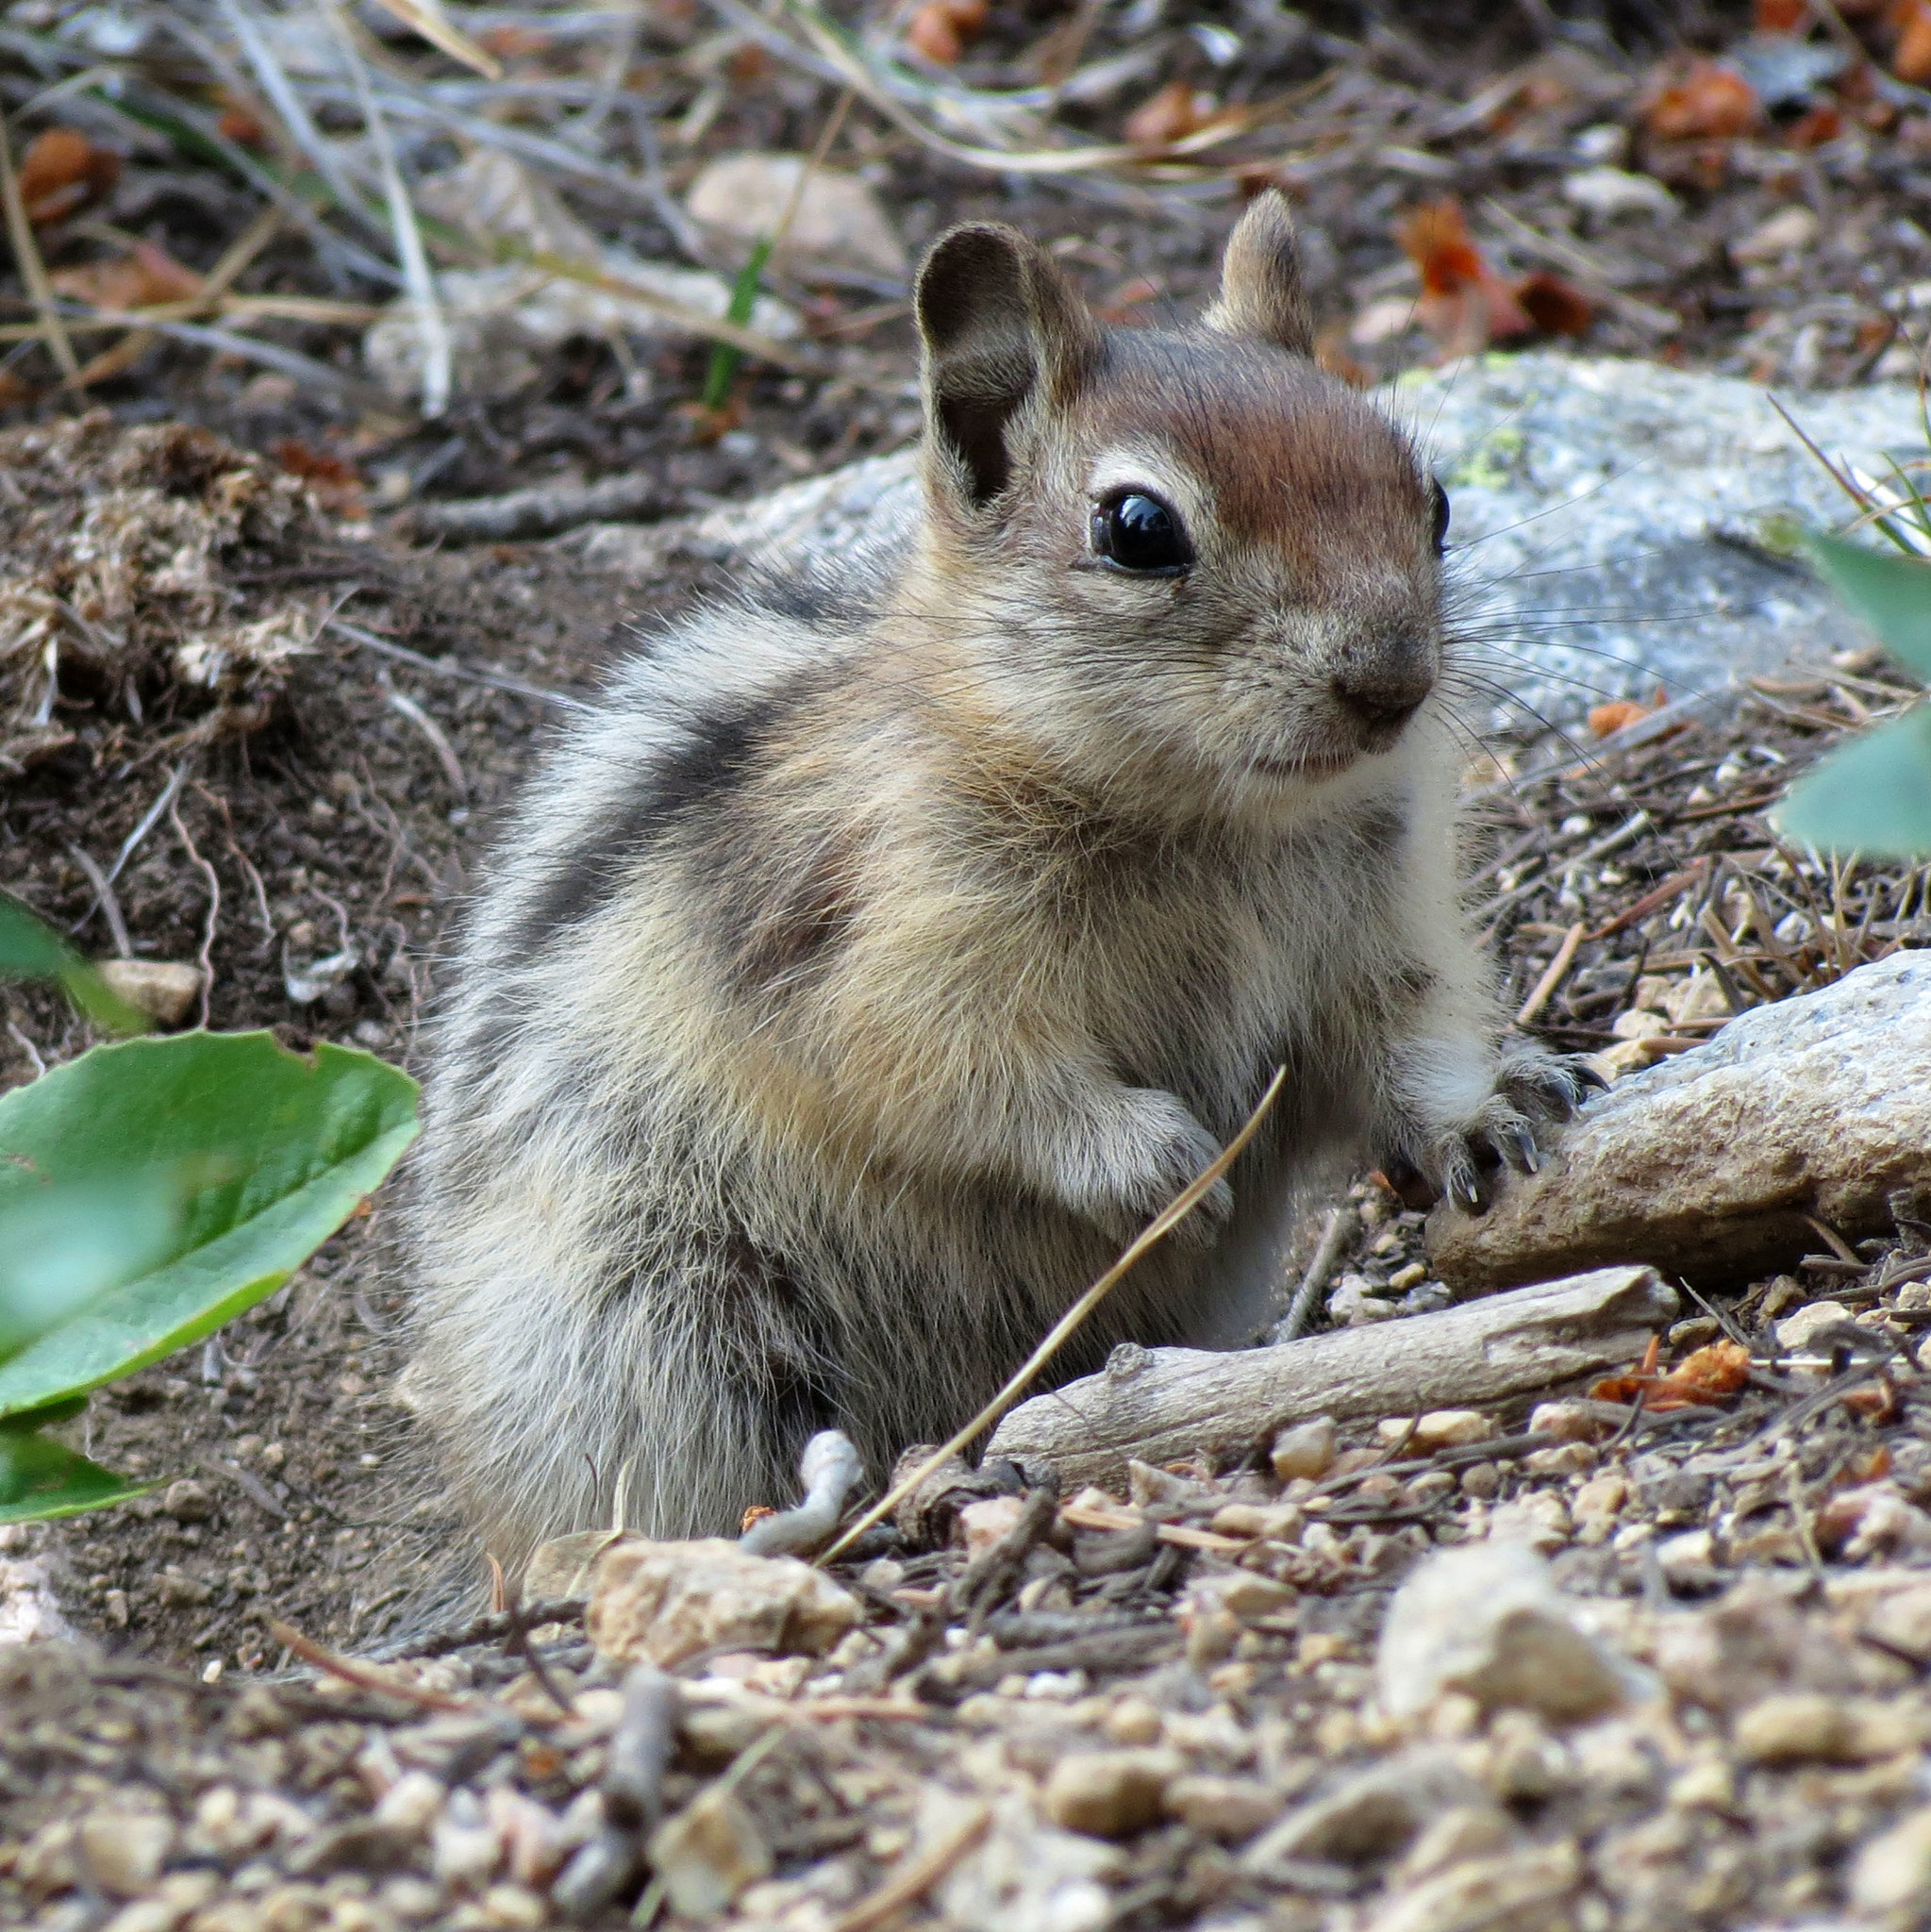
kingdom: Animalia
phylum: Chordata
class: Mammalia
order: Rodentia
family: Sciuridae
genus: Callospermophilus
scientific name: Callospermophilus lateralis
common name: Golden-mantled ground squirrel
